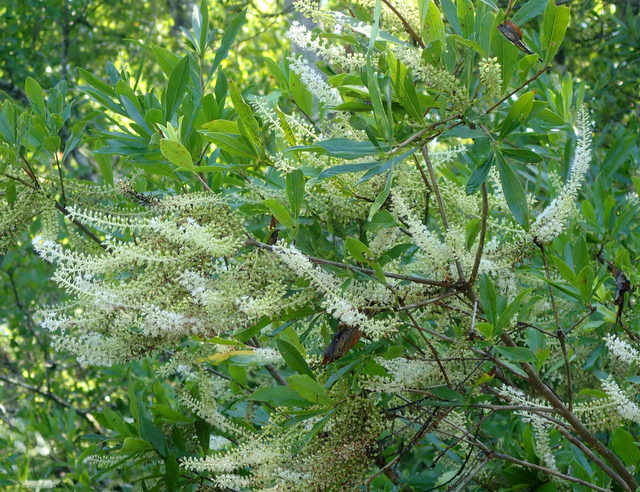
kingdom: Plantae
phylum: Tracheophyta
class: Magnoliopsida
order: Ericales
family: Cyrillaceae
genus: Cyrilla
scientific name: Cyrilla racemiflora
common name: Black titi
